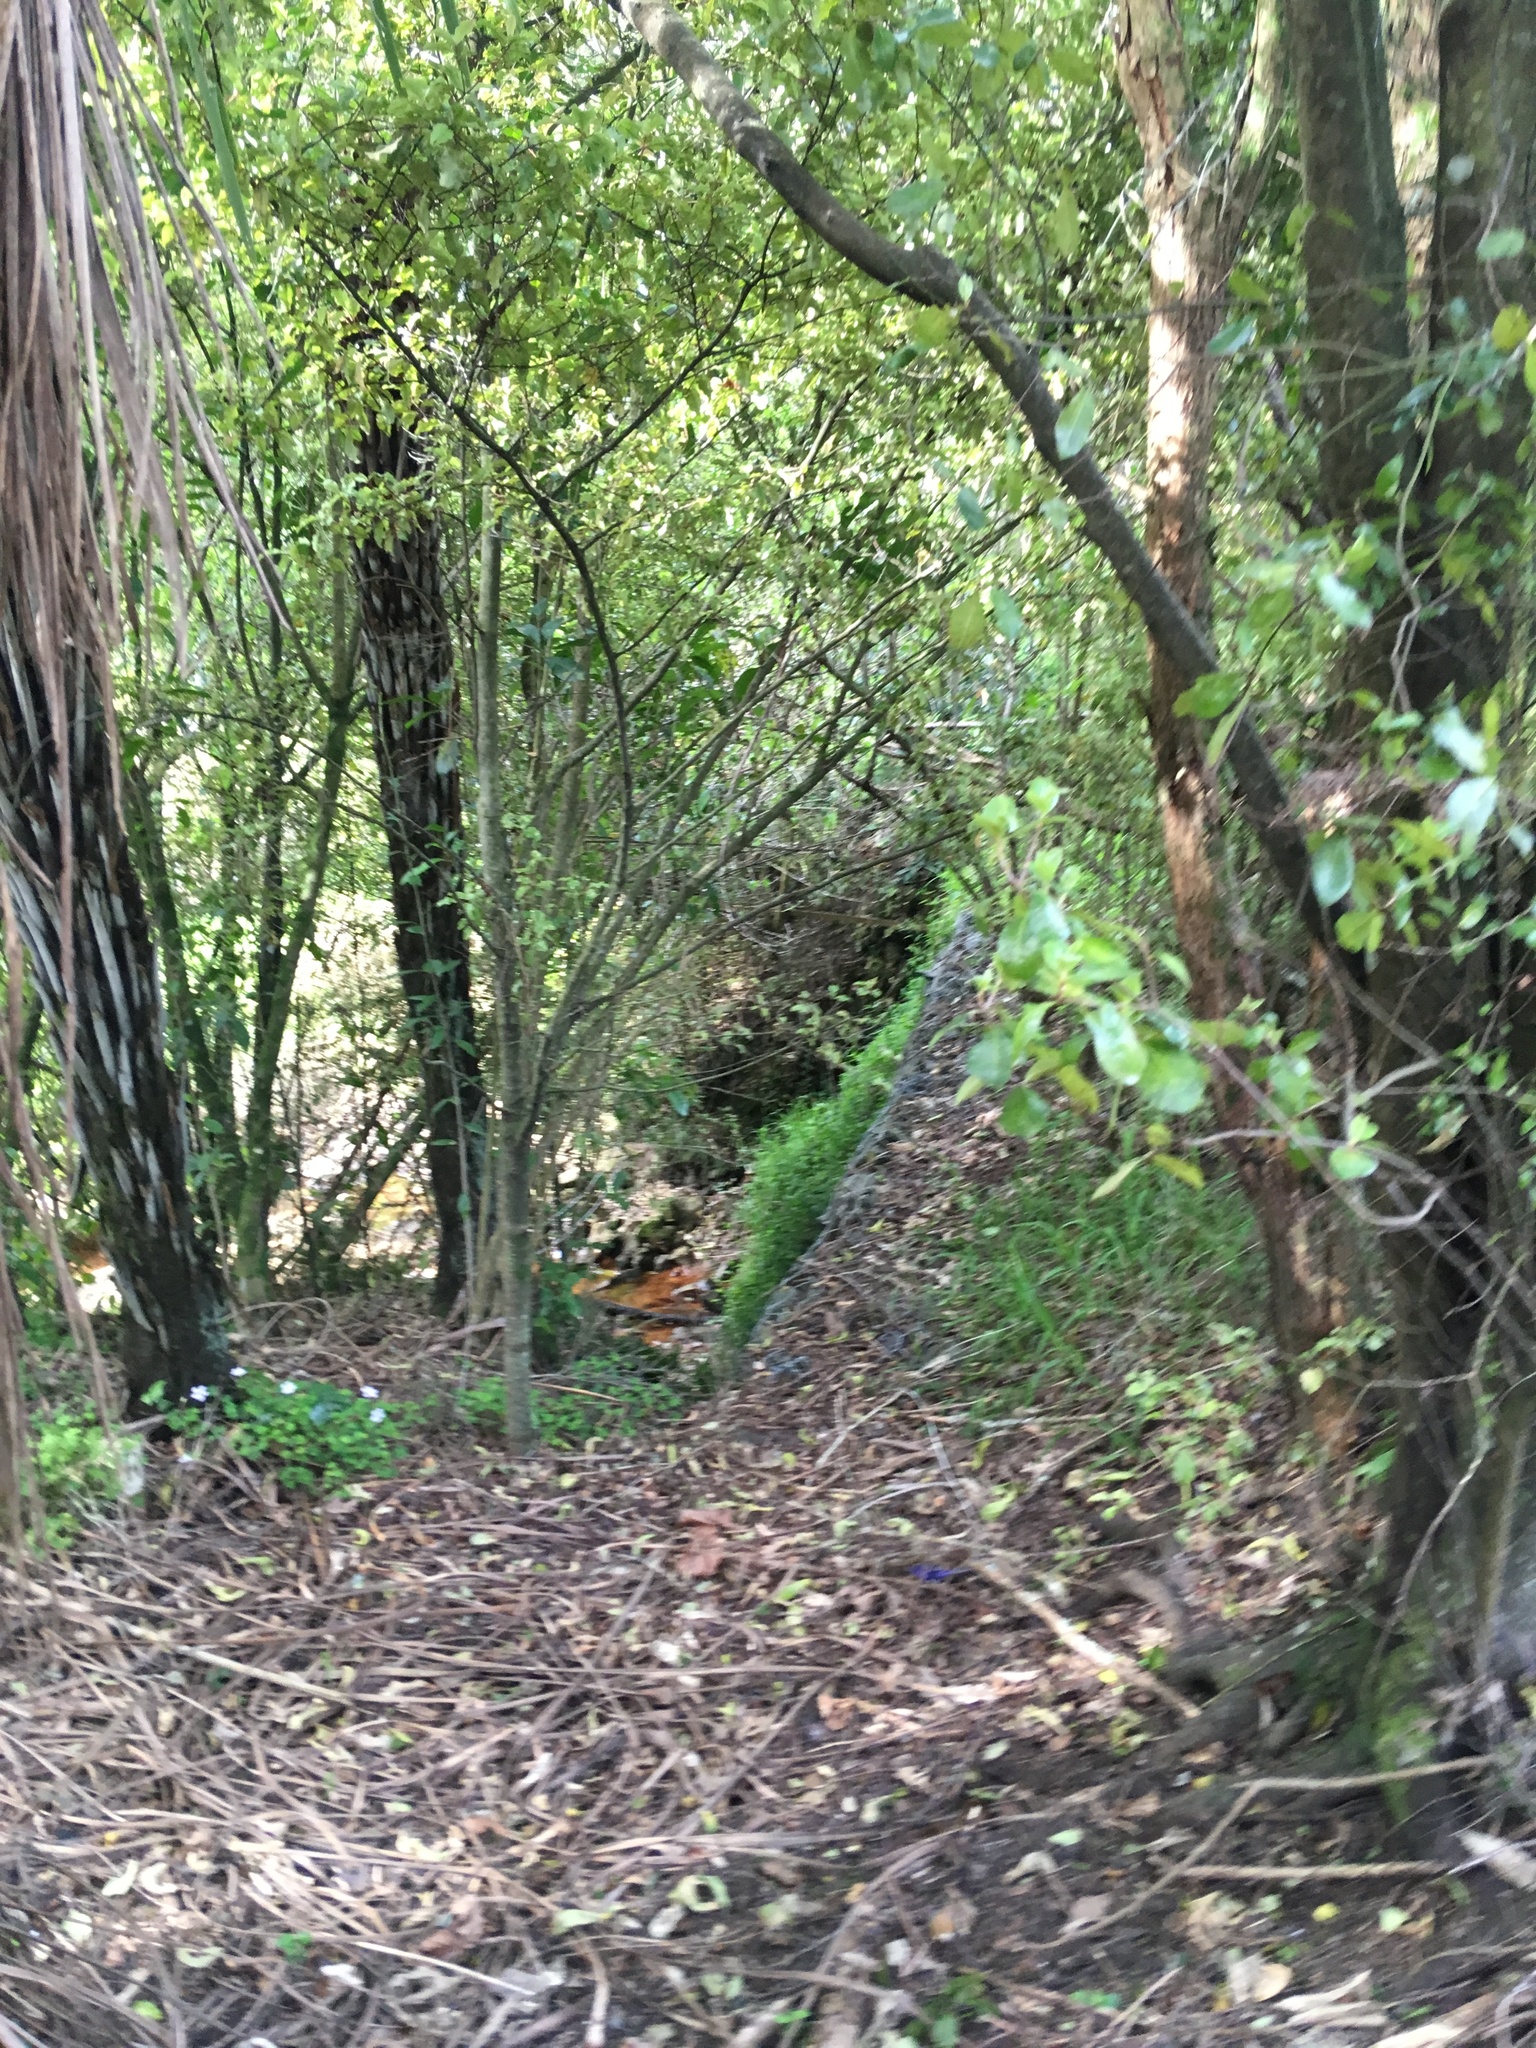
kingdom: Plantae
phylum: Tracheophyta
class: Liliopsida
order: Asparagales
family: Asparagaceae
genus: Cordyline
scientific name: Cordyline australis
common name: Cabbage-palm
